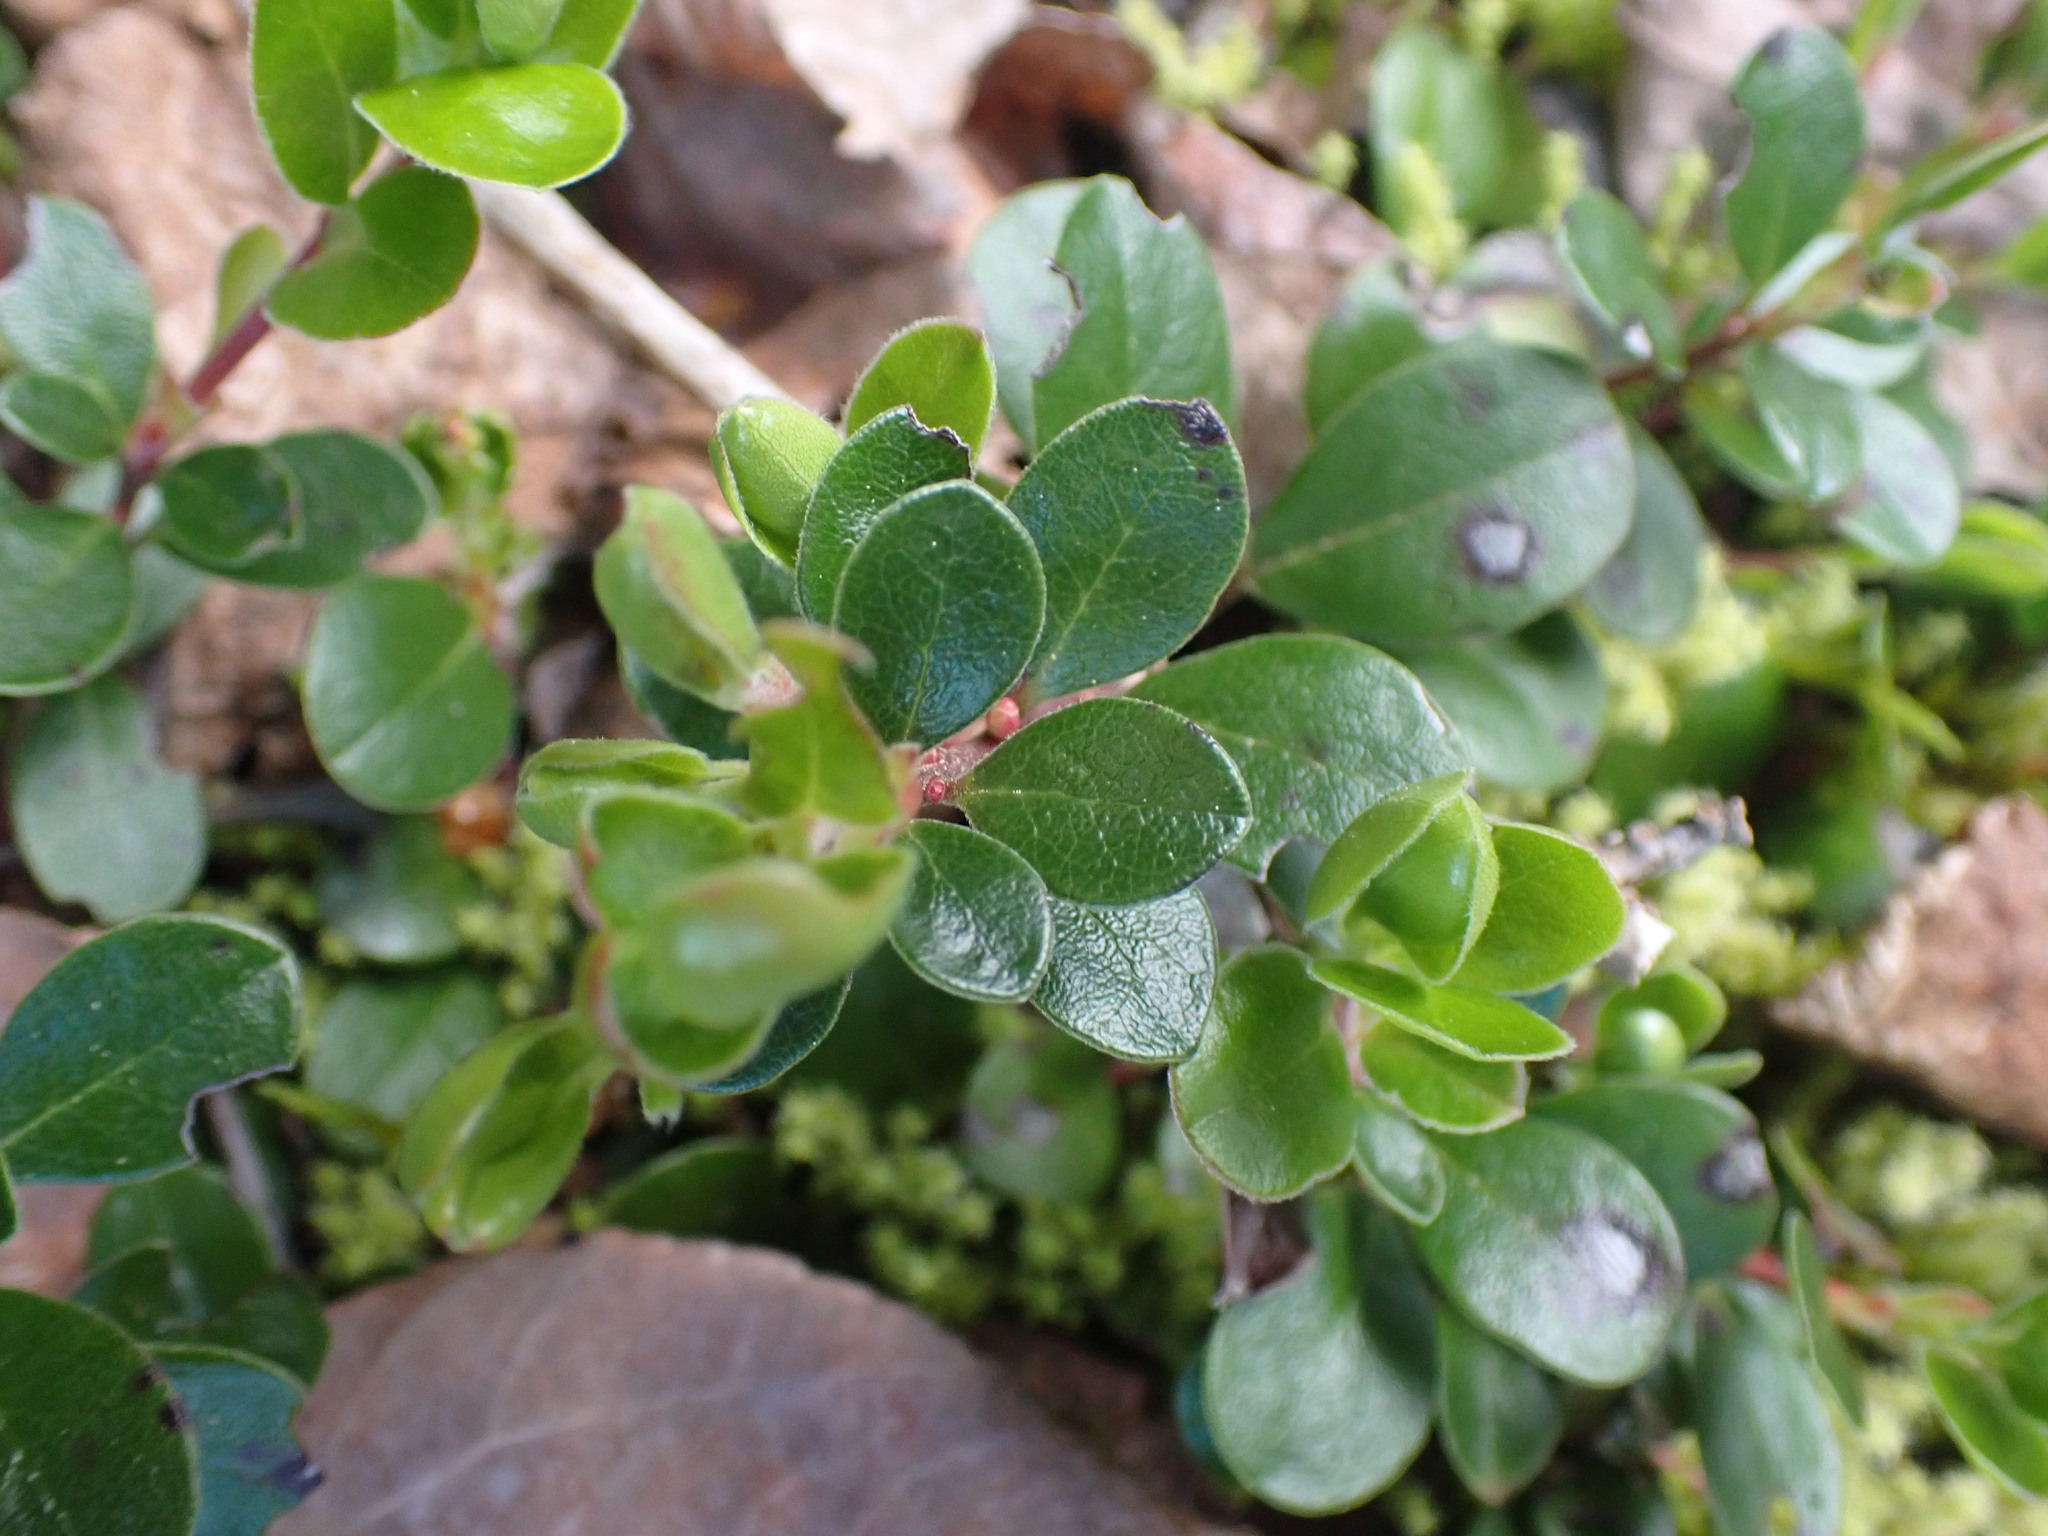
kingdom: Plantae
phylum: Tracheophyta
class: Magnoliopsida
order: Ericales
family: Ericaceae
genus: Arctostaphylos
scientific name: Arctostaphylos uva-ursi
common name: Bearberry
